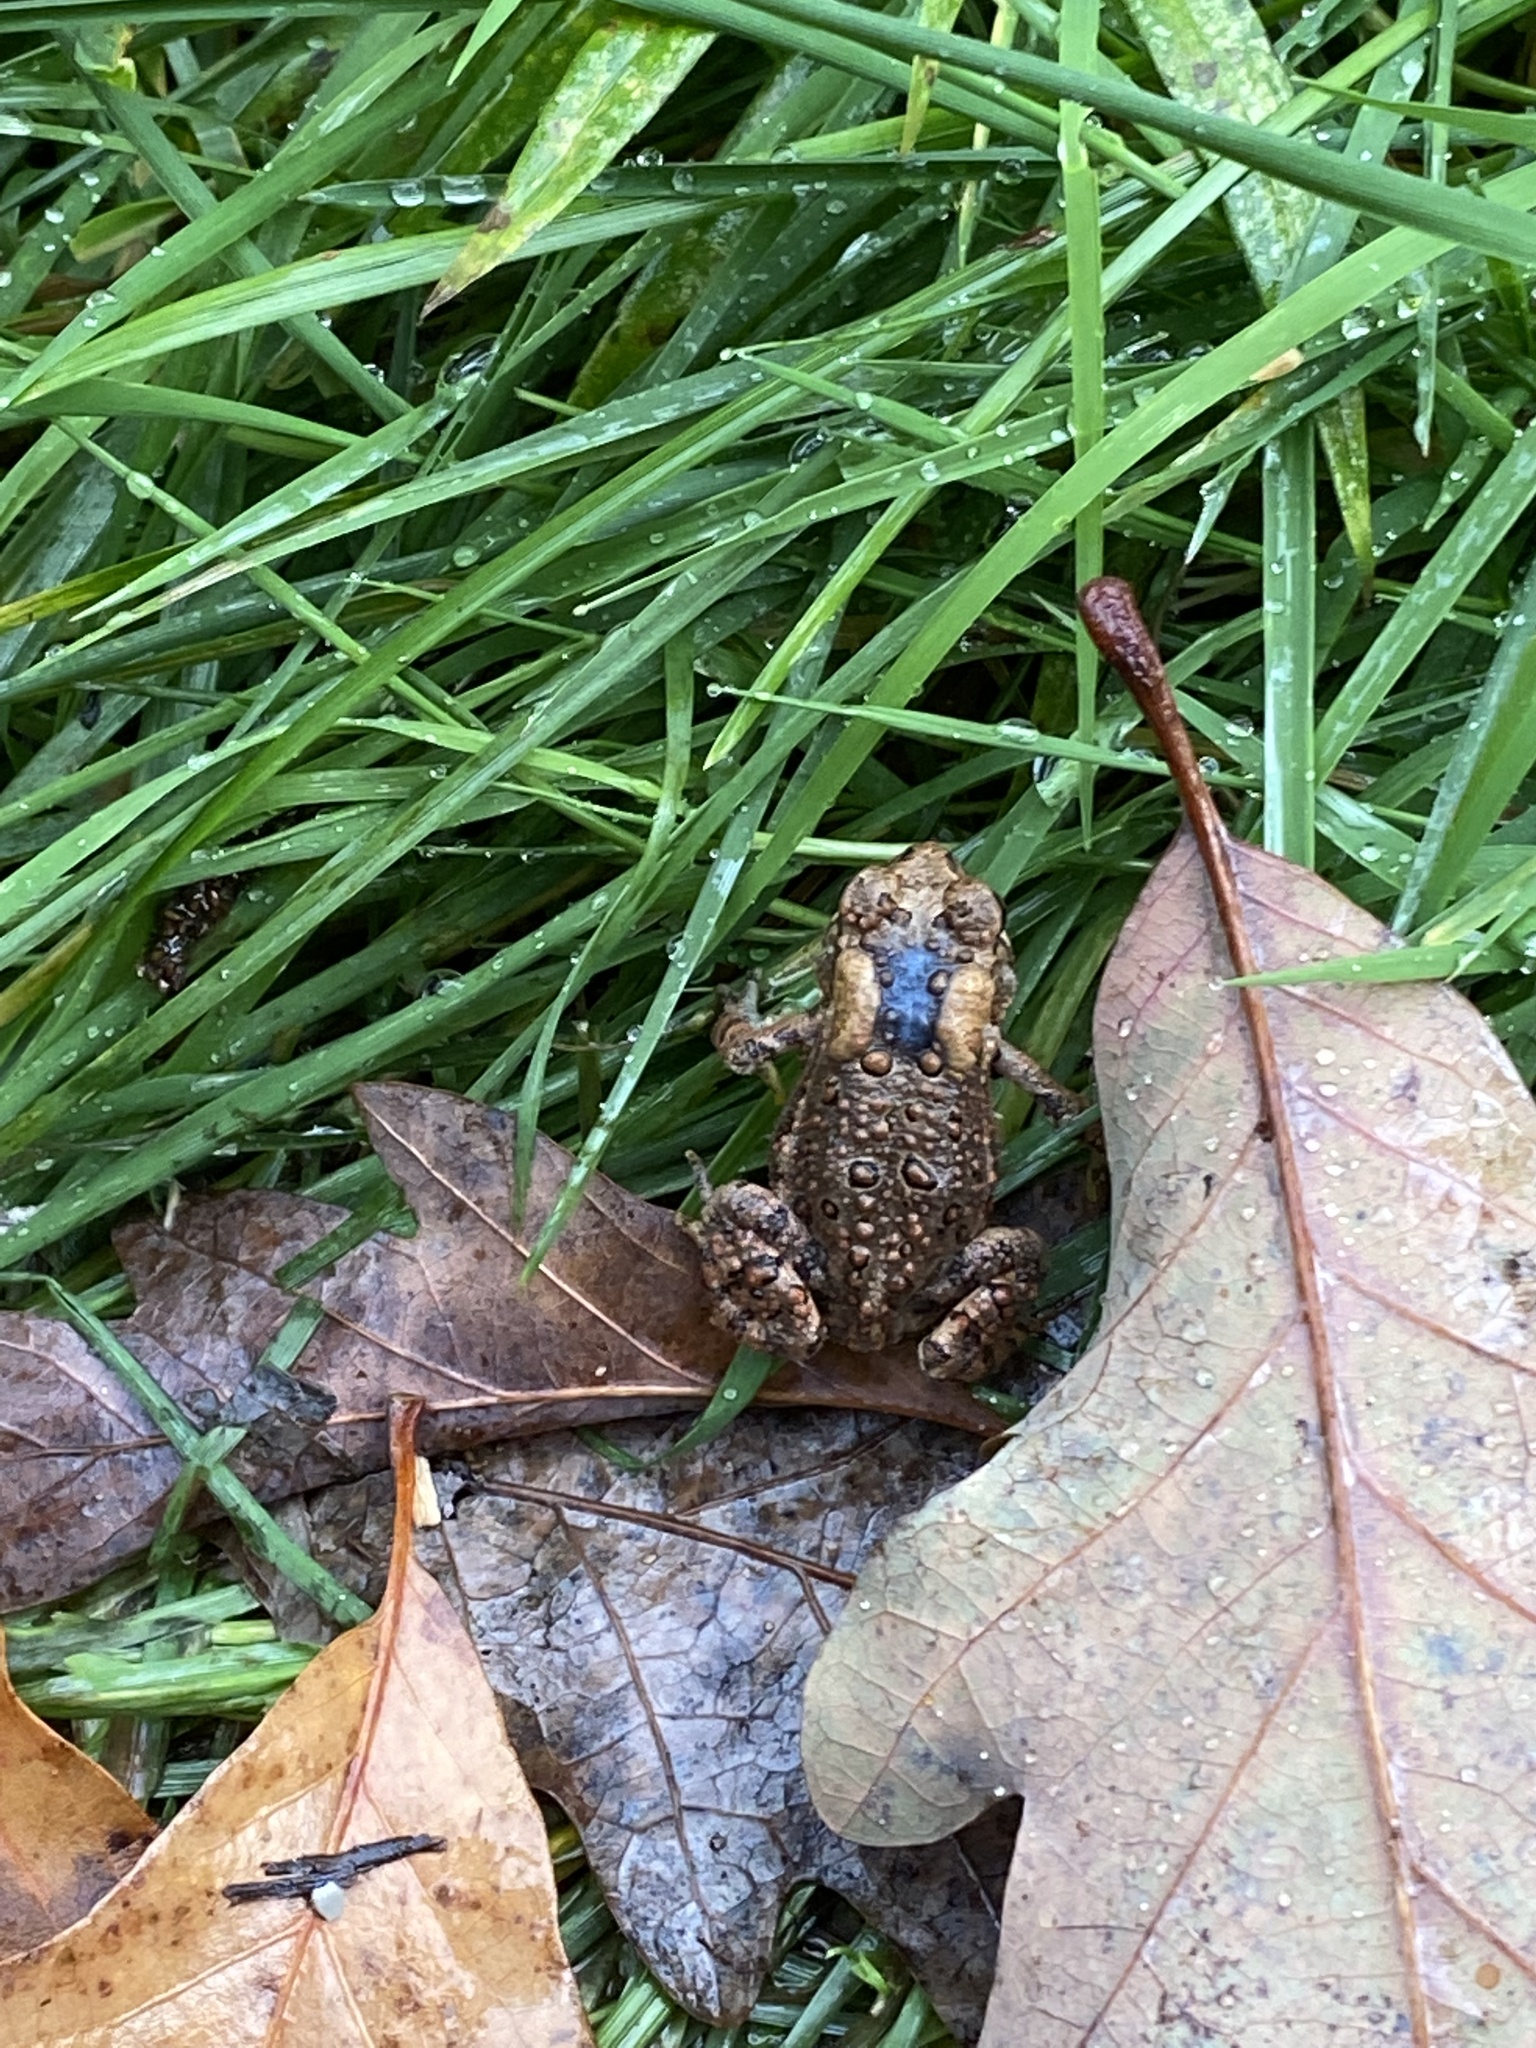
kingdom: Animalia
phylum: Chordata
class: Amphibia
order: Anura
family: Bufonidae
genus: Anaxyrus
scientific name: Anaxyrus americanus
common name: American toad
